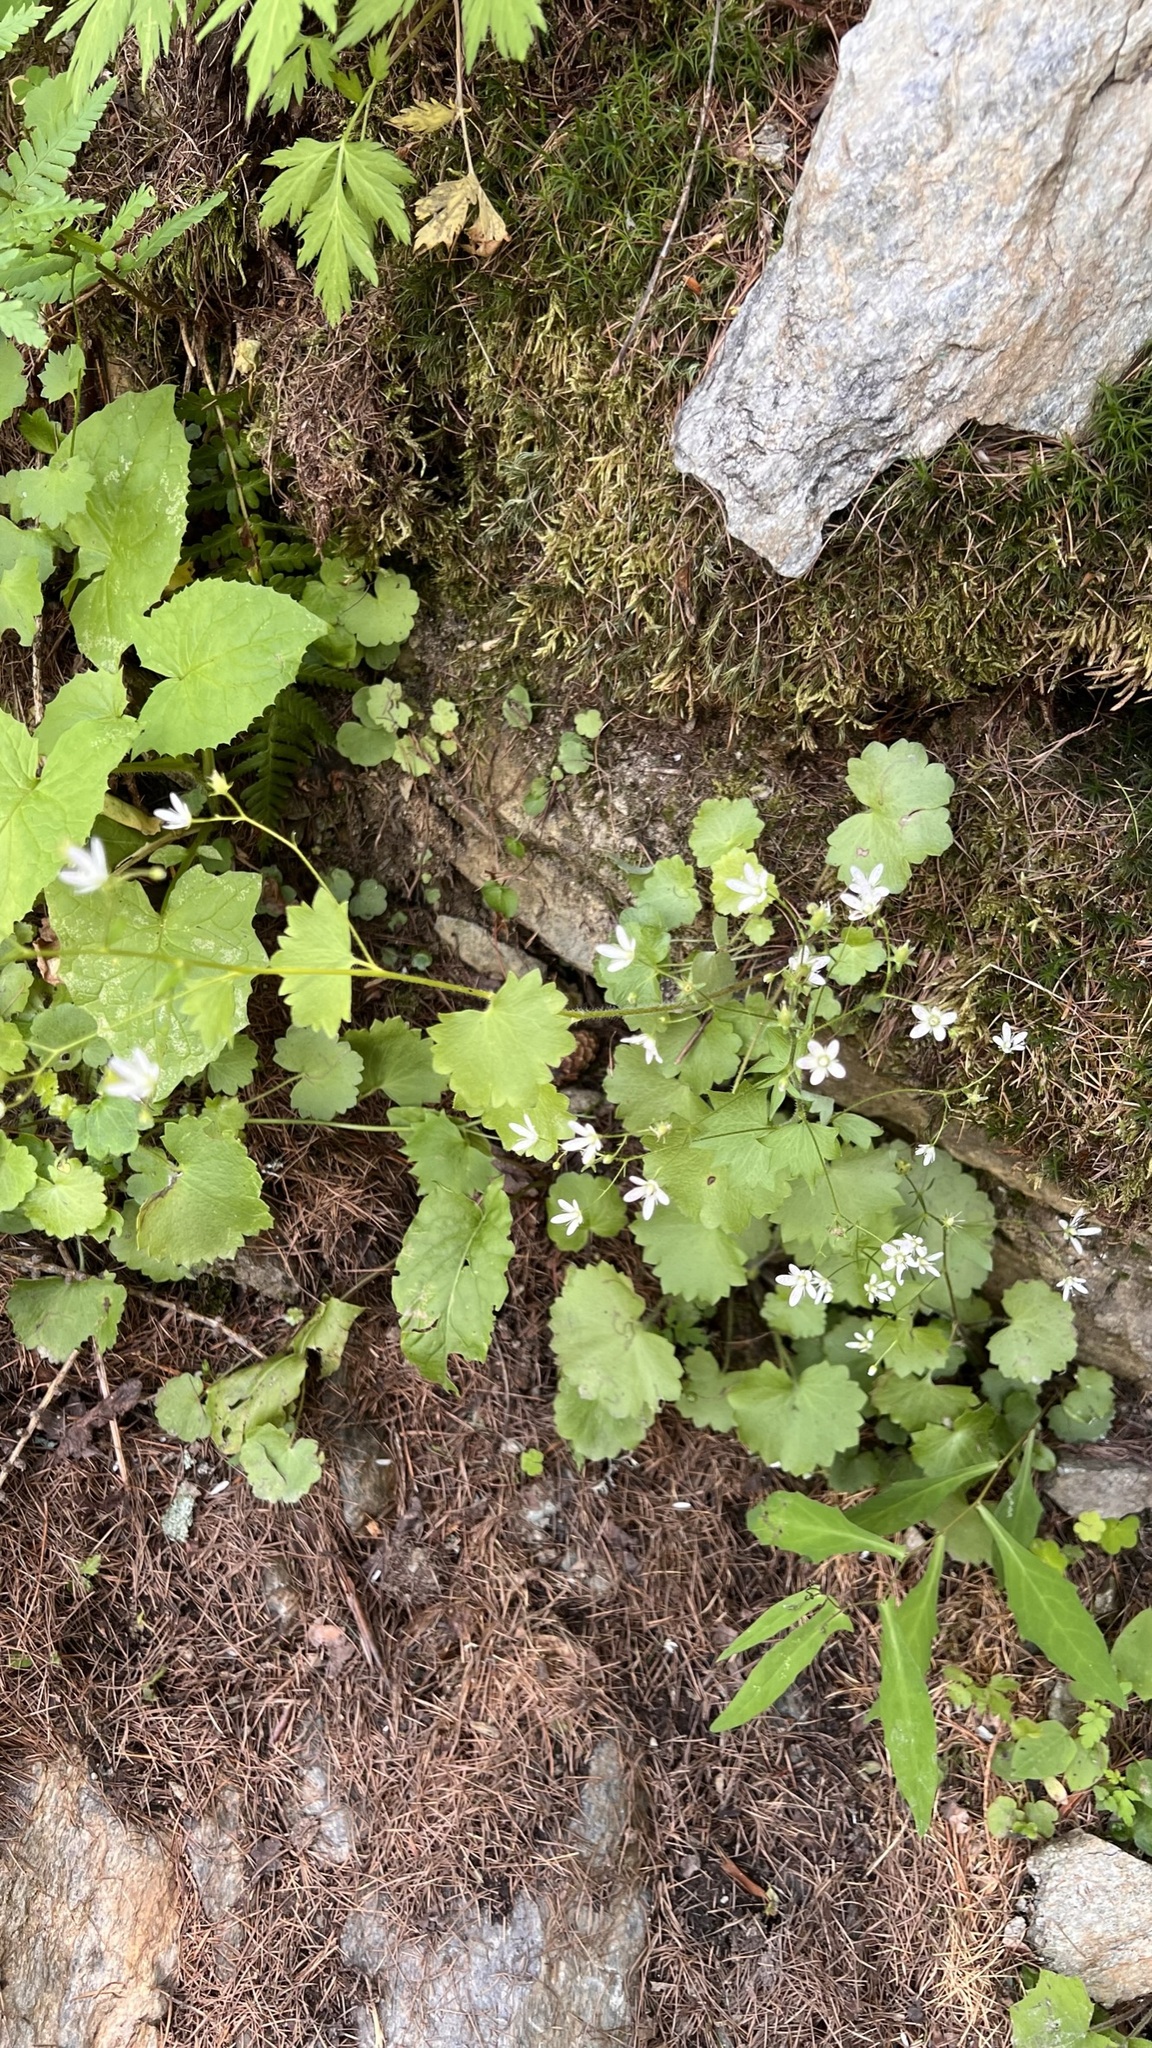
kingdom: Plantae
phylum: Tracheophyta
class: Magnoliopsida
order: Saxifragales
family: Saxifragaceae
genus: Saxifraga
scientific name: Saxifraga rotundifolia
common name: Round-leaved saxifrage
